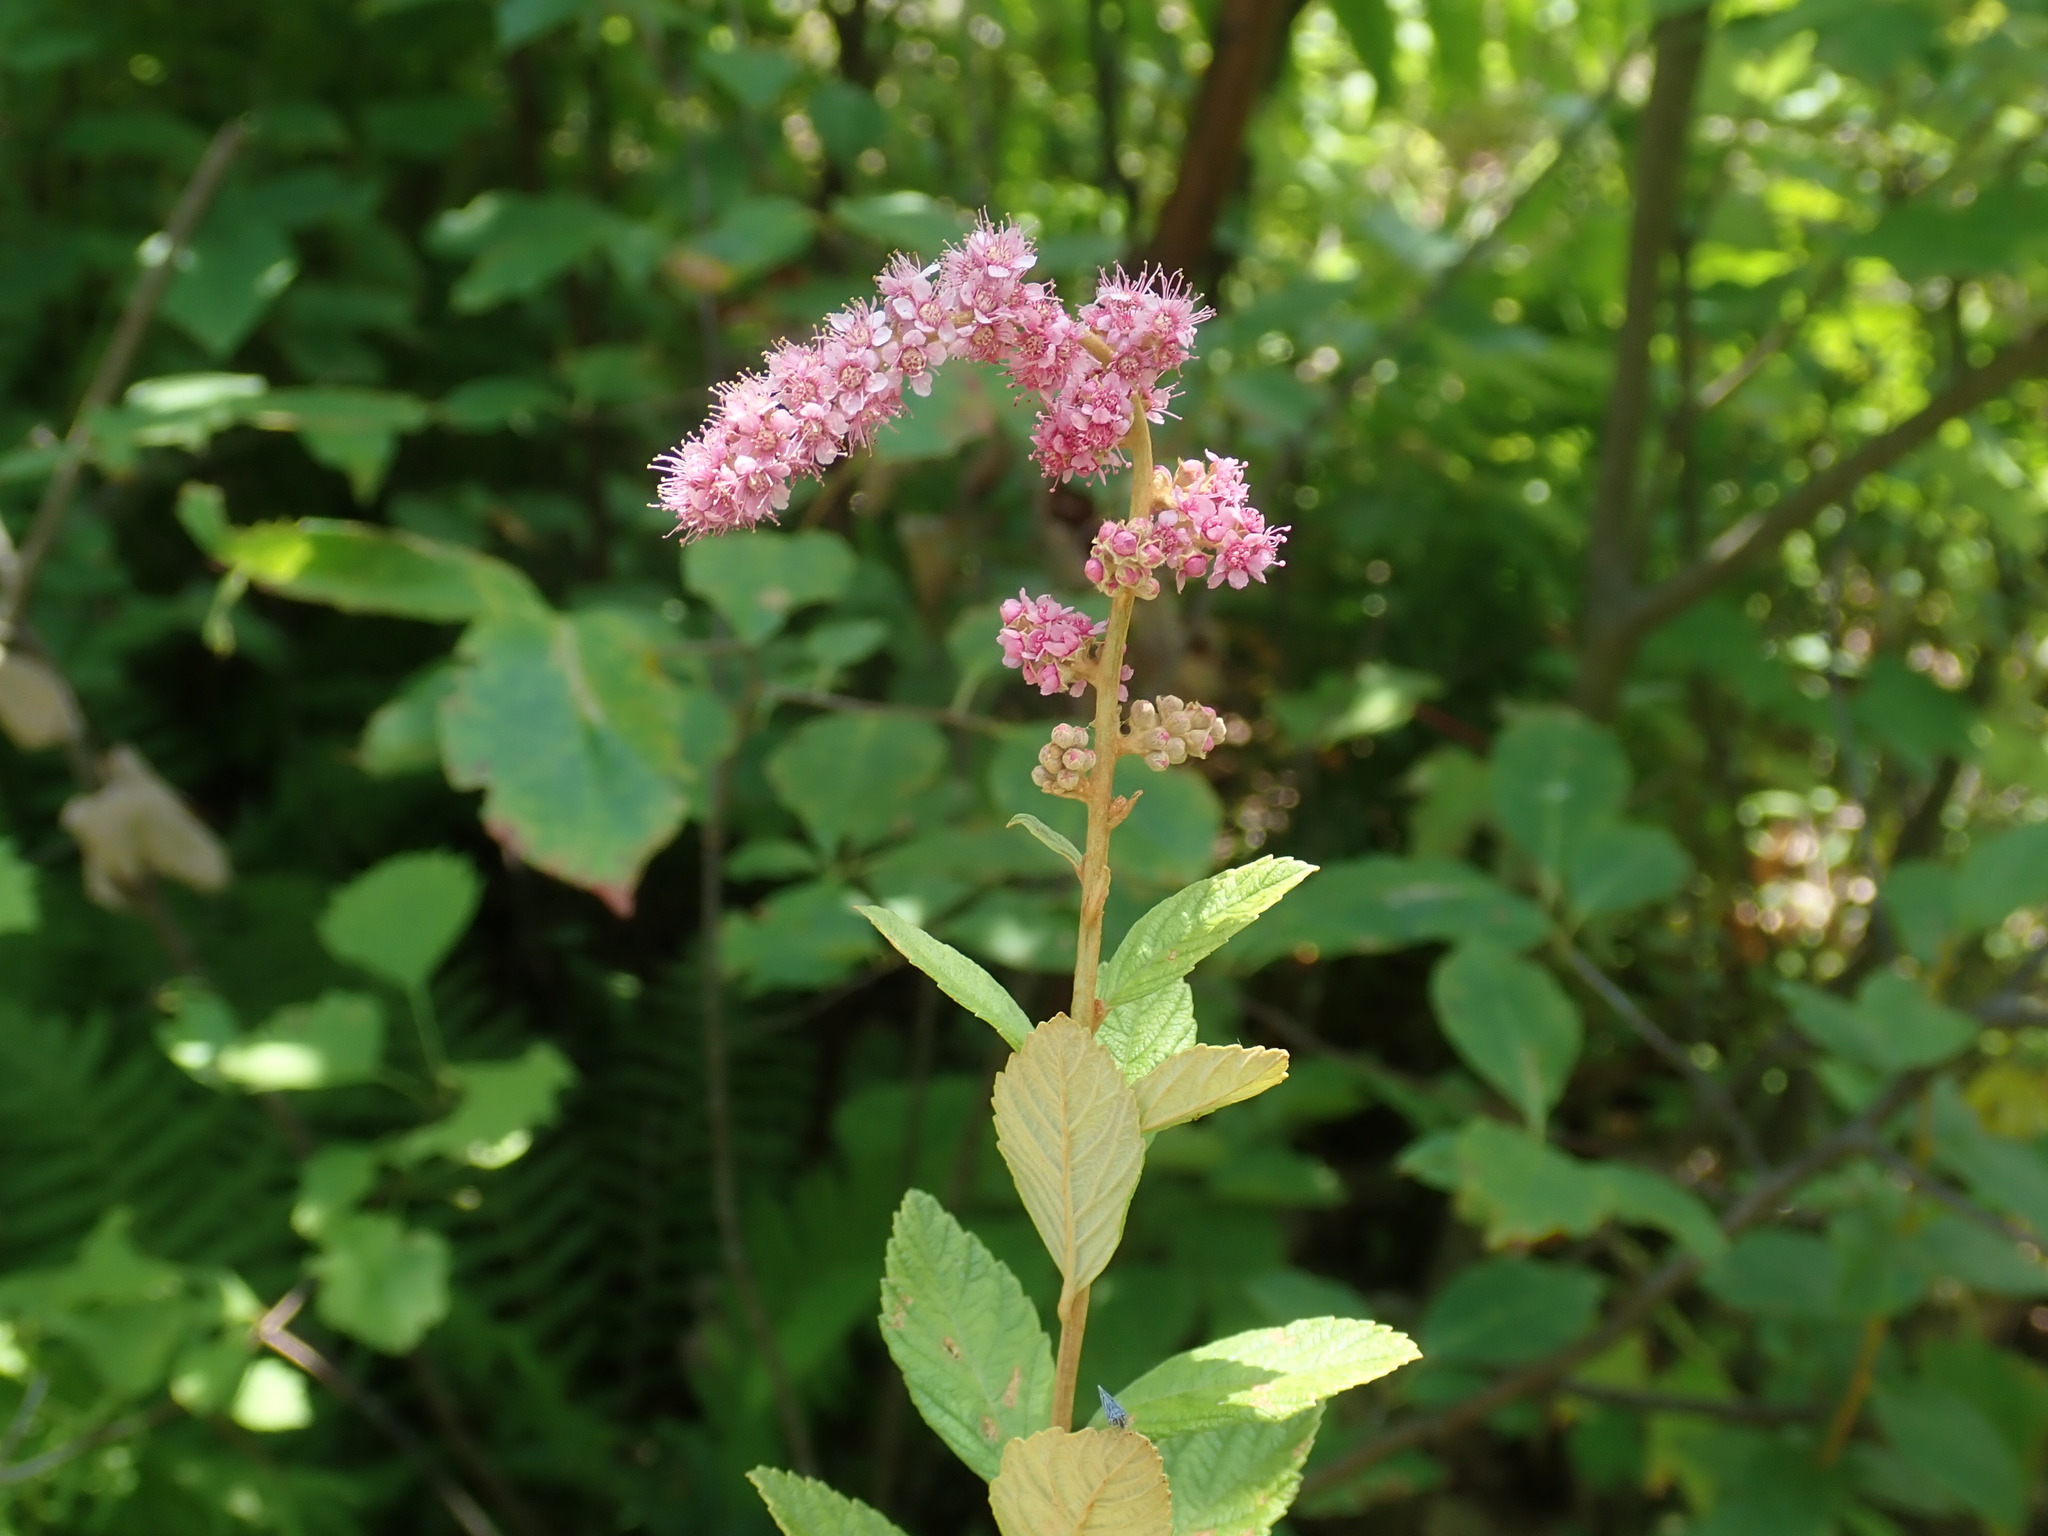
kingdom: Plantae
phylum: Tracheophyta
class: Magnoliopsida
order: Rosales
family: Rosaceae
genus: Spiraea
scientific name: Spiraea tomentosa
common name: Hardhack
